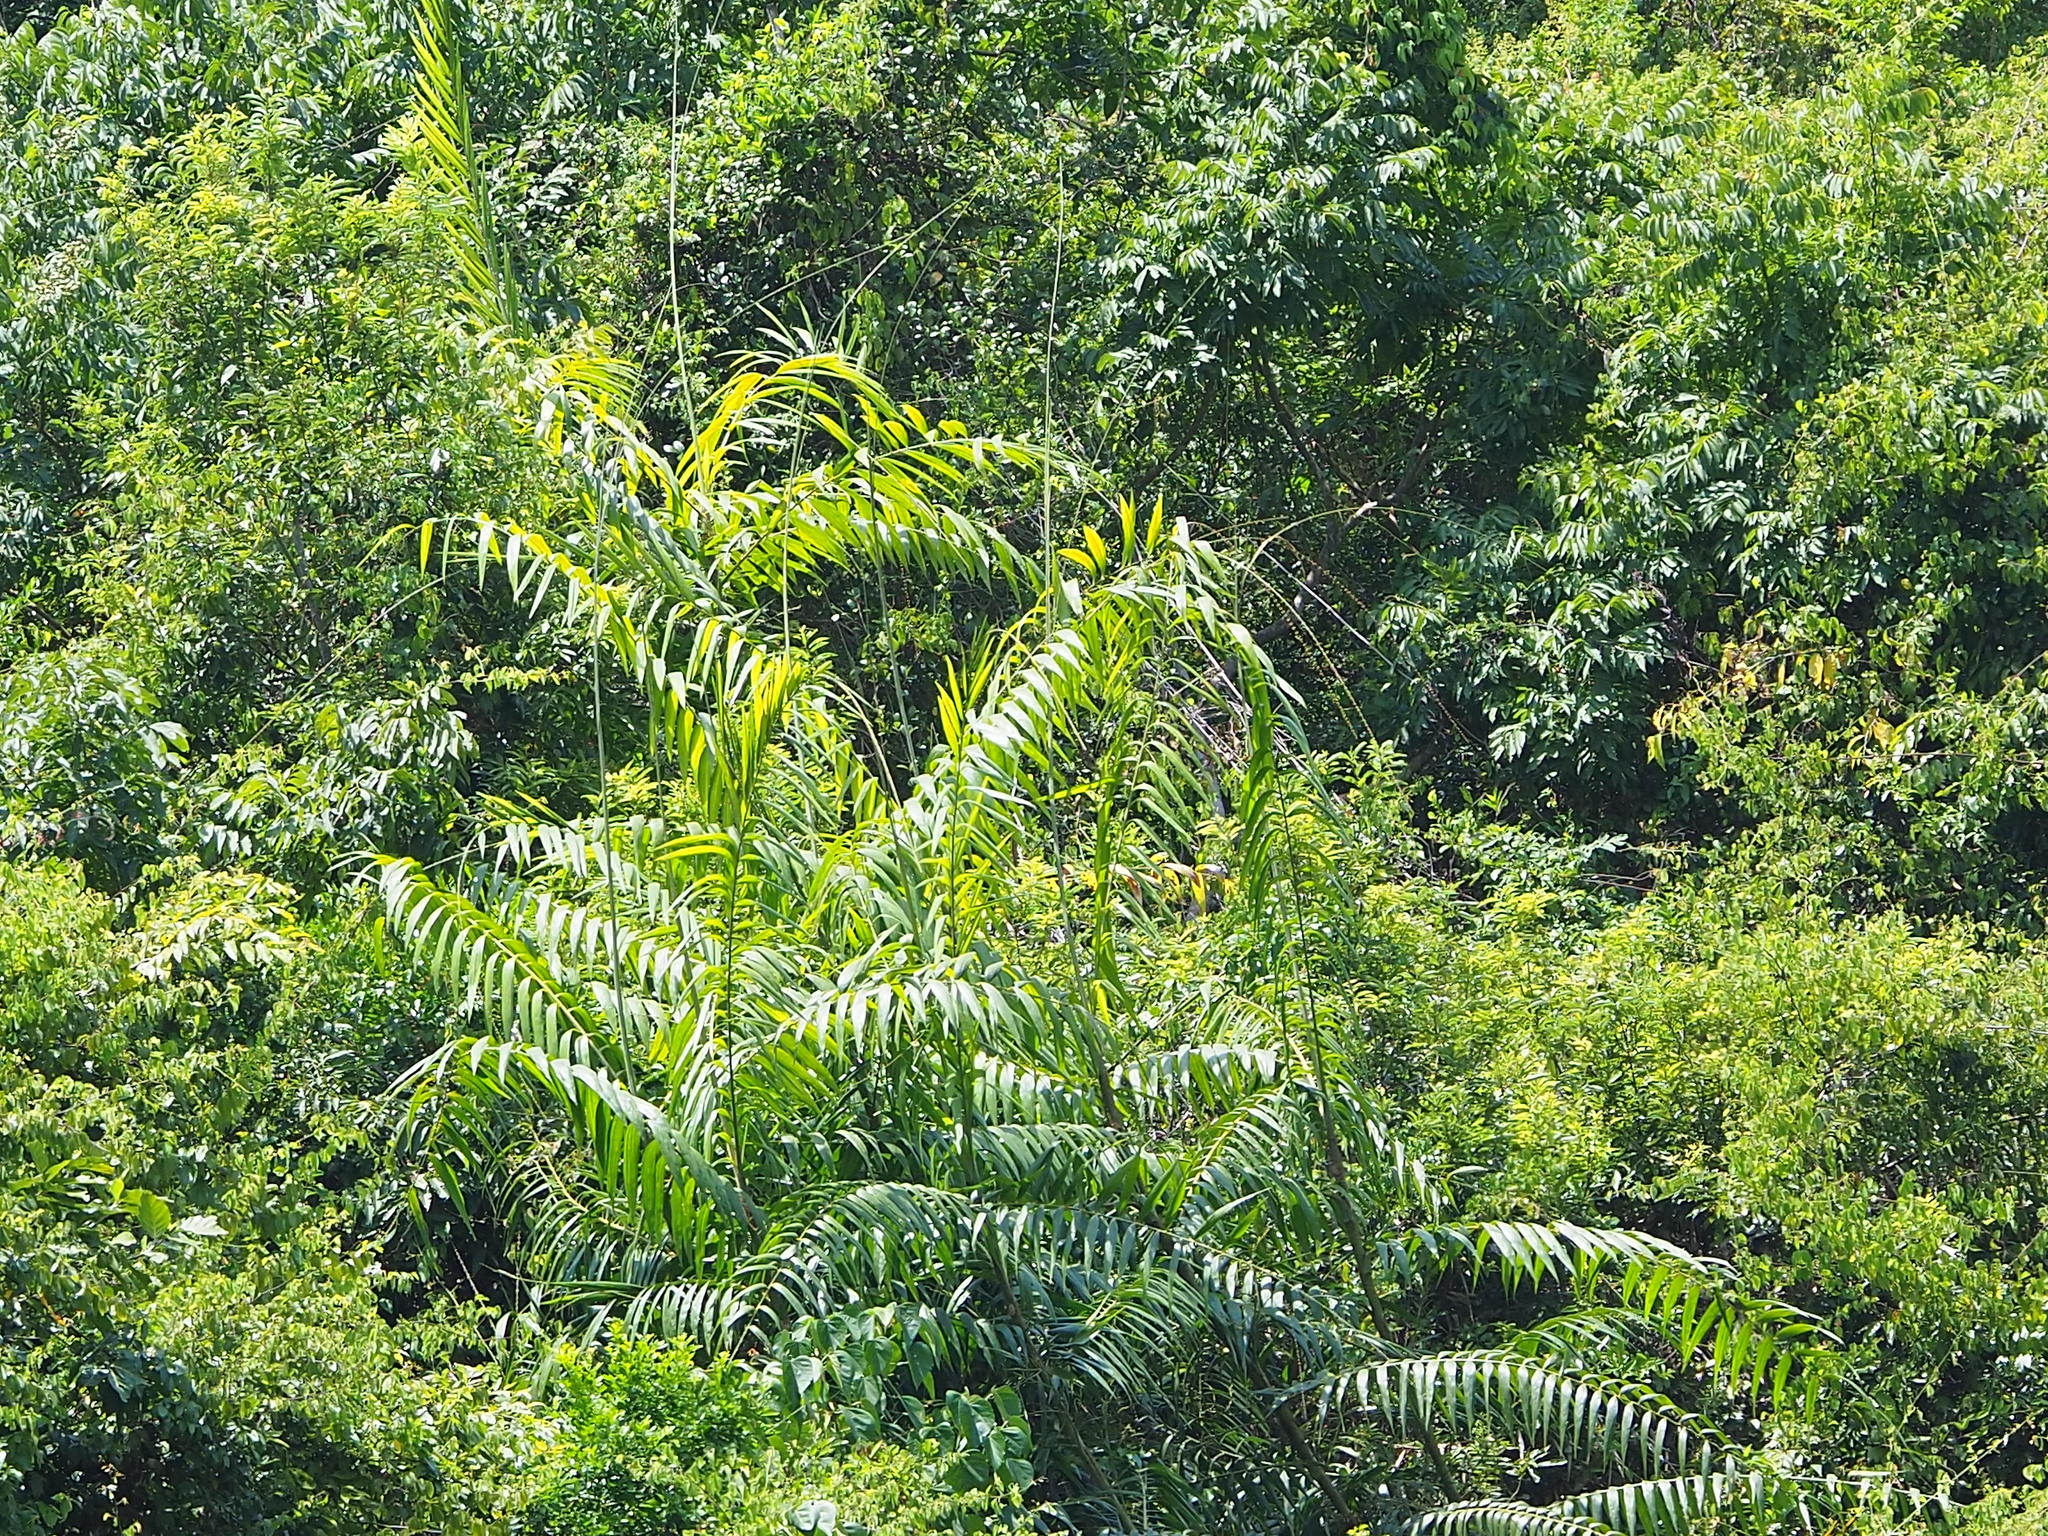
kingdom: Plantae
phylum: Tracheophyta
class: Liliopsida
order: Arecales
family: Arecaceae
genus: Calamus
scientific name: Calamus formosanus
